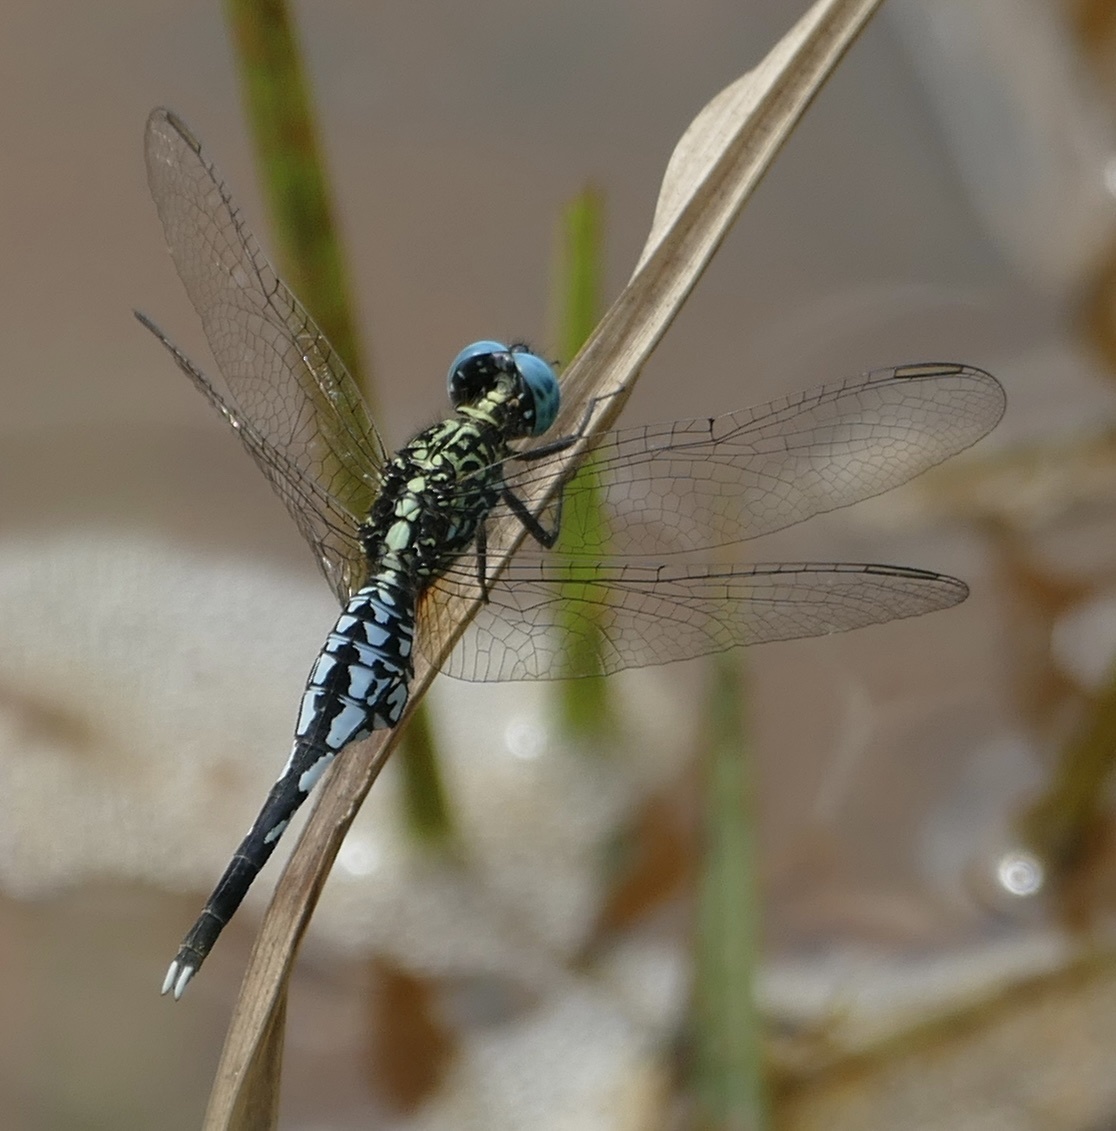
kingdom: Animalia
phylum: Arthropoda
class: Insecta
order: Odonata
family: Libellulidae
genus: Acisoma
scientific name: Acisoma inflatum
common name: Stout pintail
